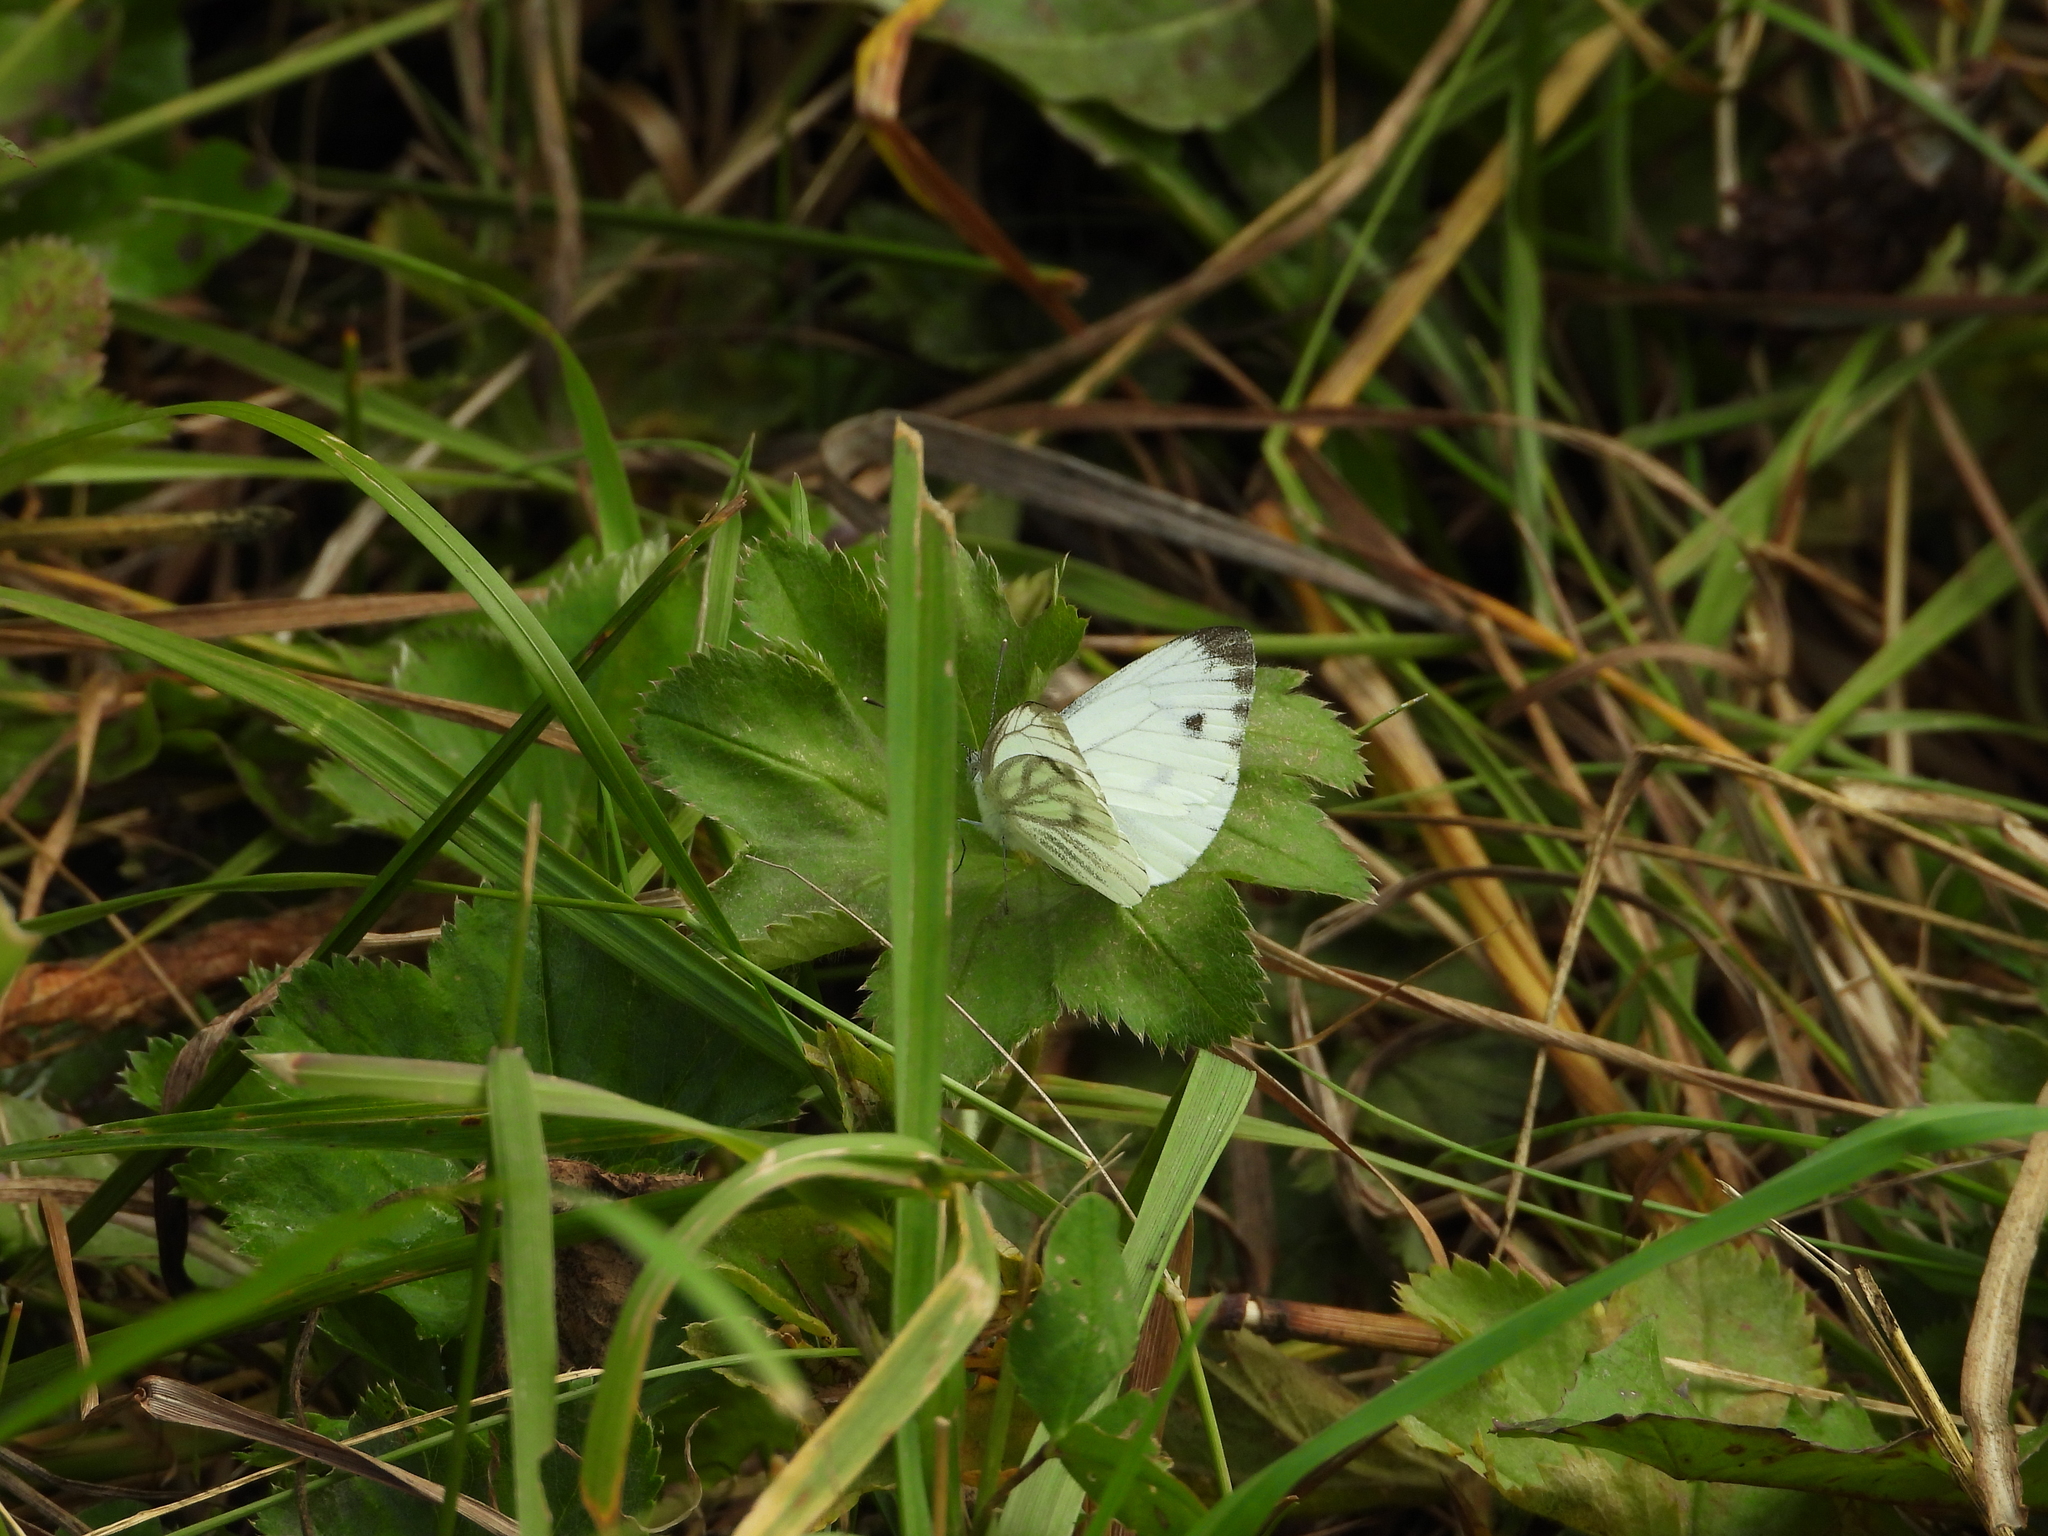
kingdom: Animalia
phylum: Arthropoda
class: Insecta
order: Lepidoptera
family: Pieridae
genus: Pieris
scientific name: Pieris napi
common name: Green-veined white
